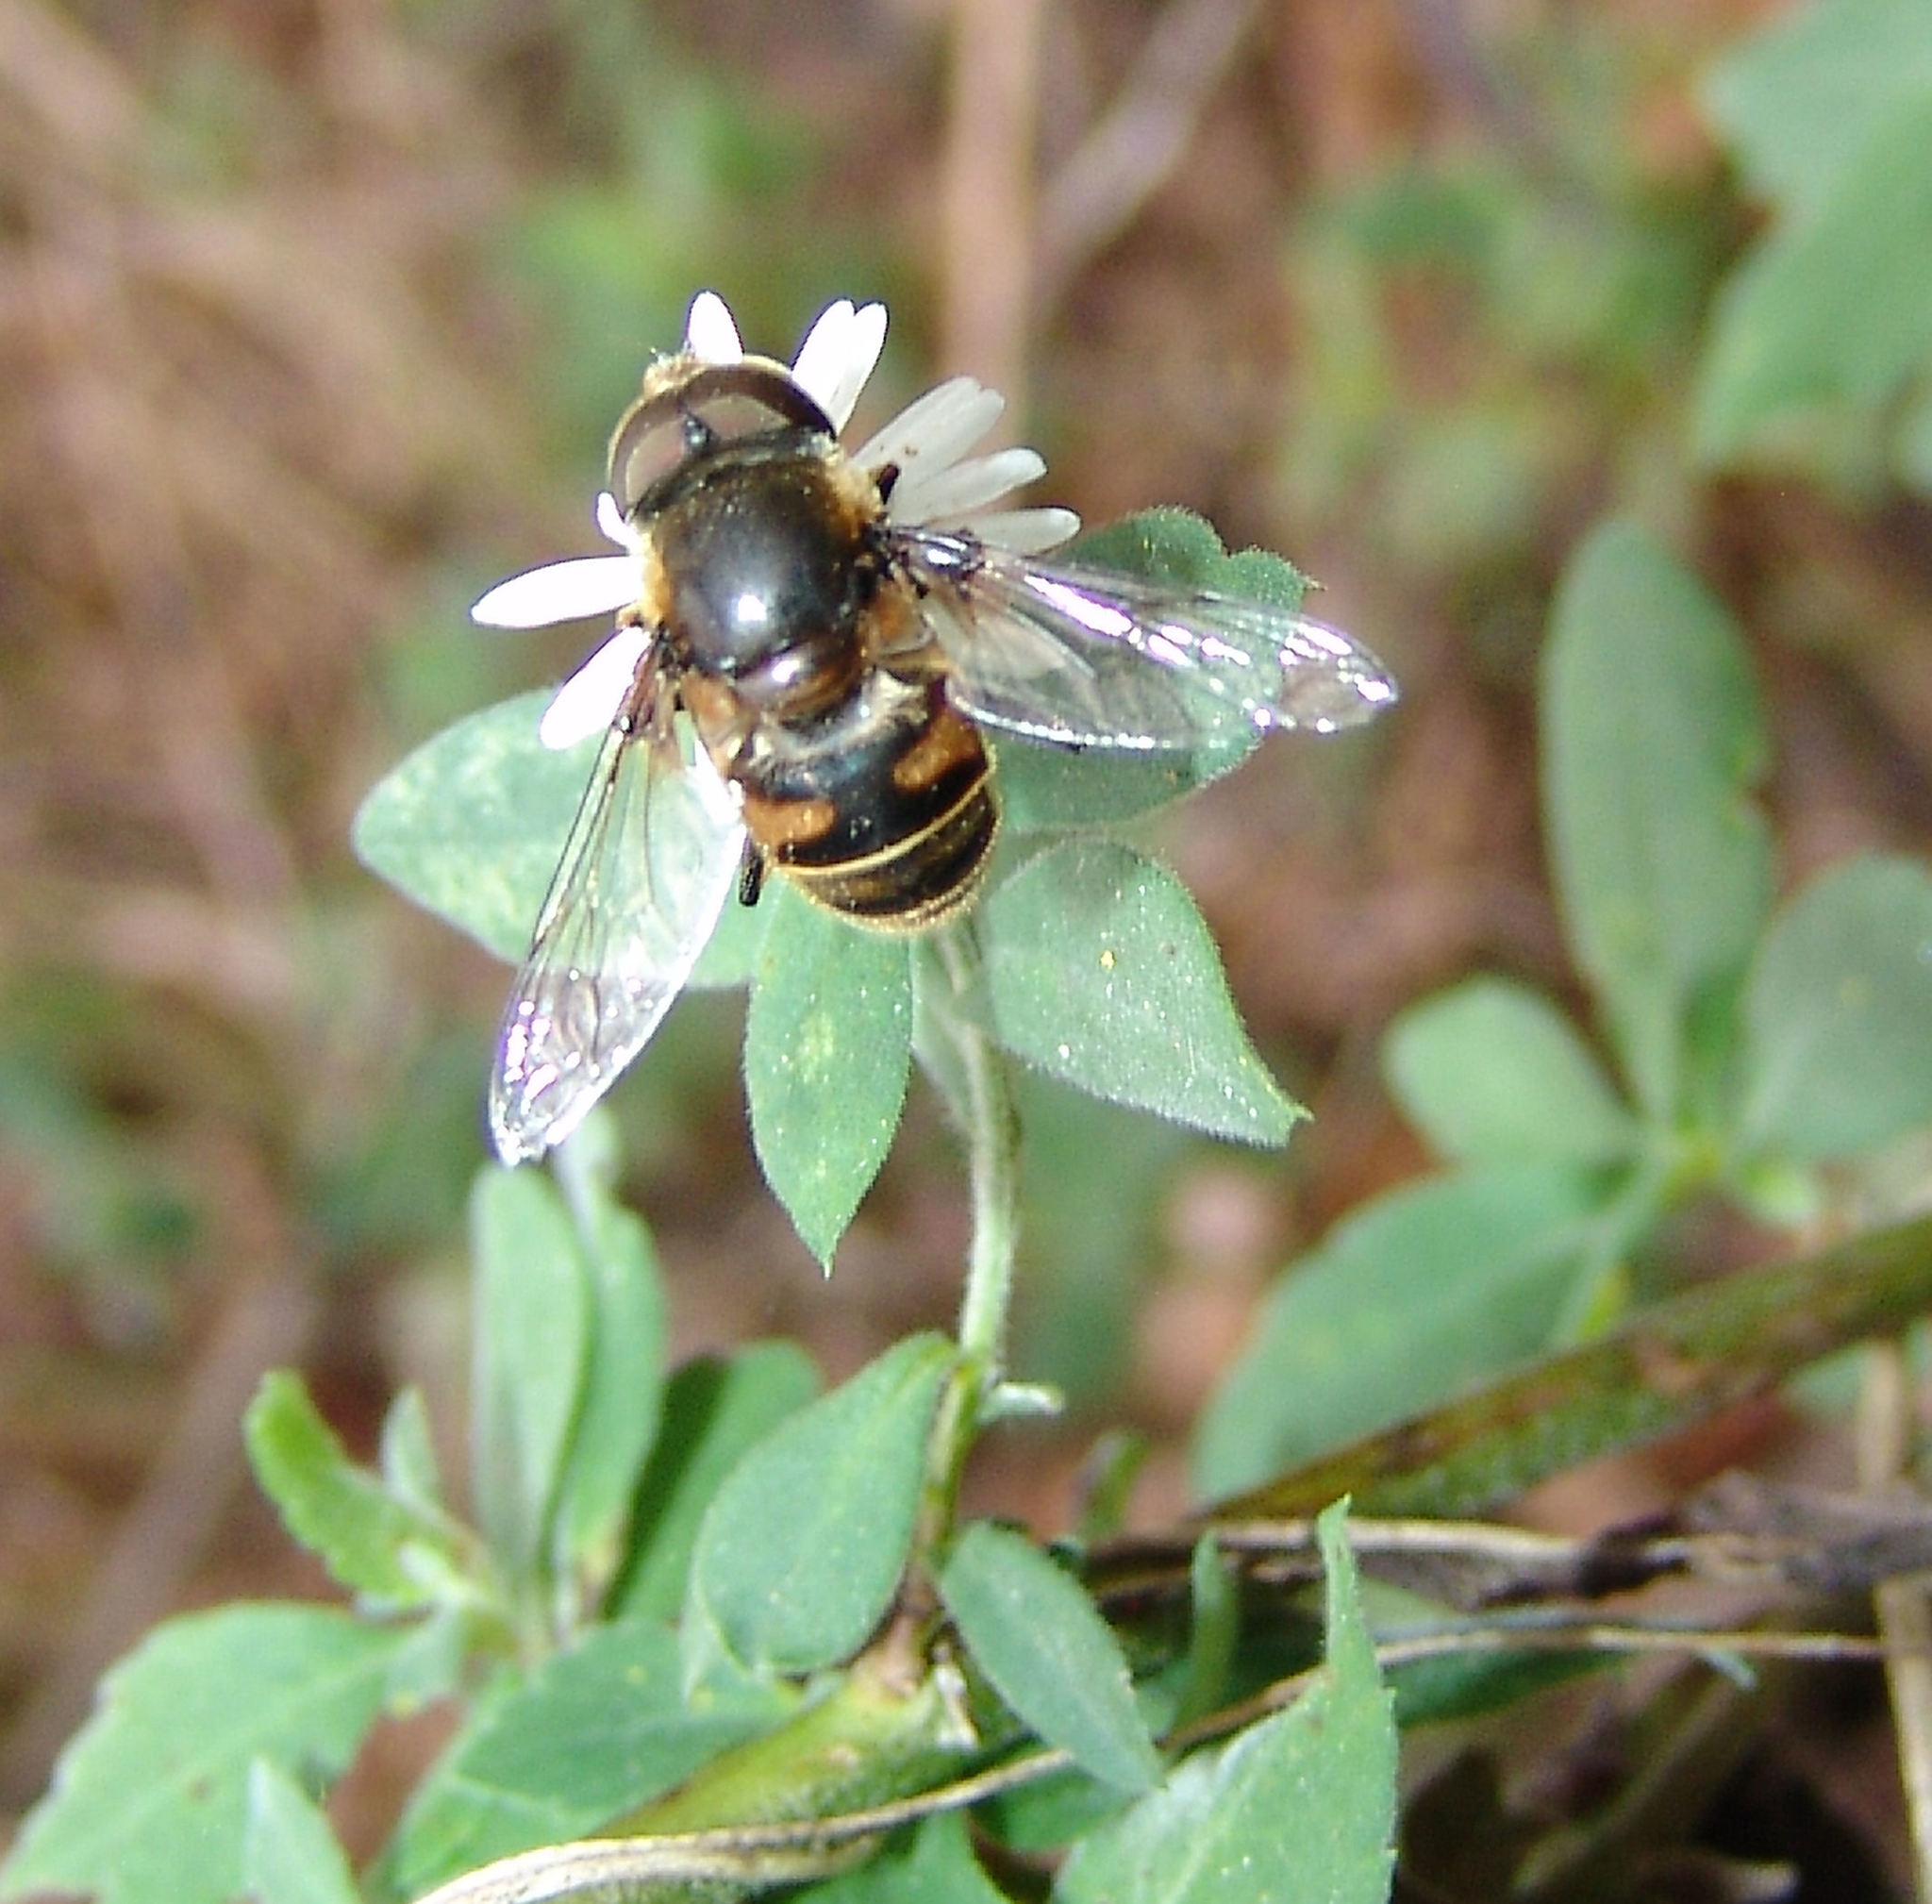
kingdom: Animalia
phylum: Arthropoda
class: Insecta
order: Diptera
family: Syrphidae
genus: Eristalis
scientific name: Eristalis dimidiata
